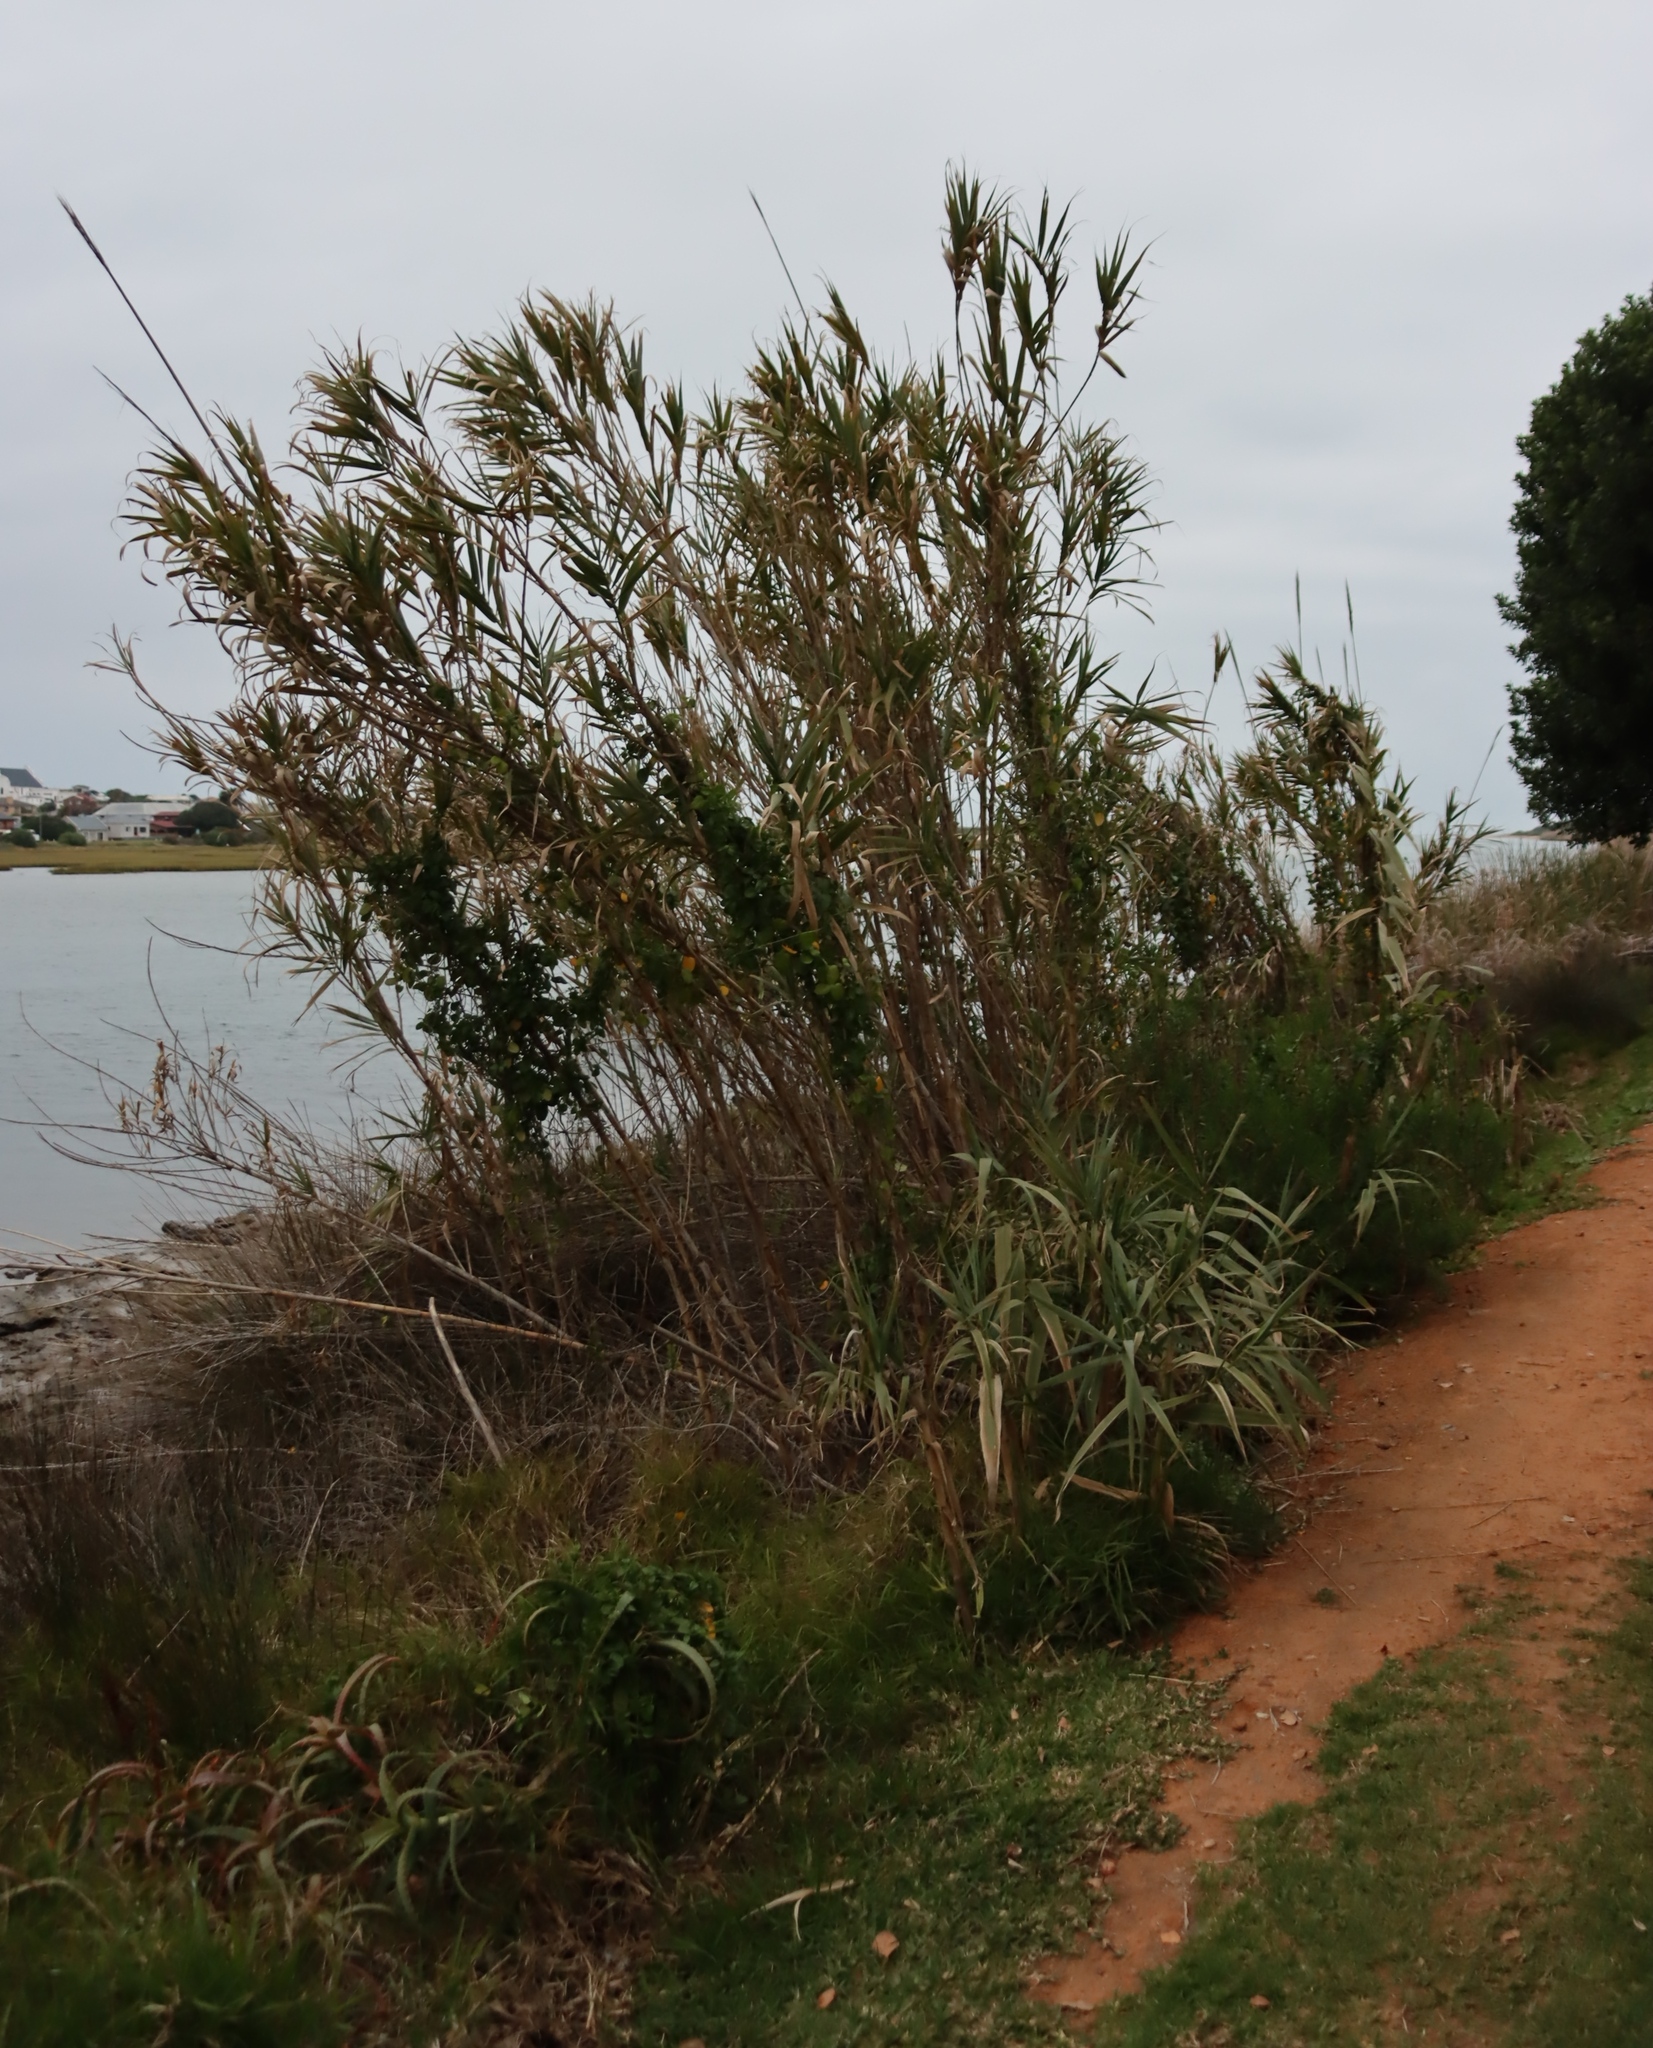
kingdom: Plantae
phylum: Tracheophyta
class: Liliopsida
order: Poales
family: Poaceae
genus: Arundo
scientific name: Arundo donax
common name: Giant reed
